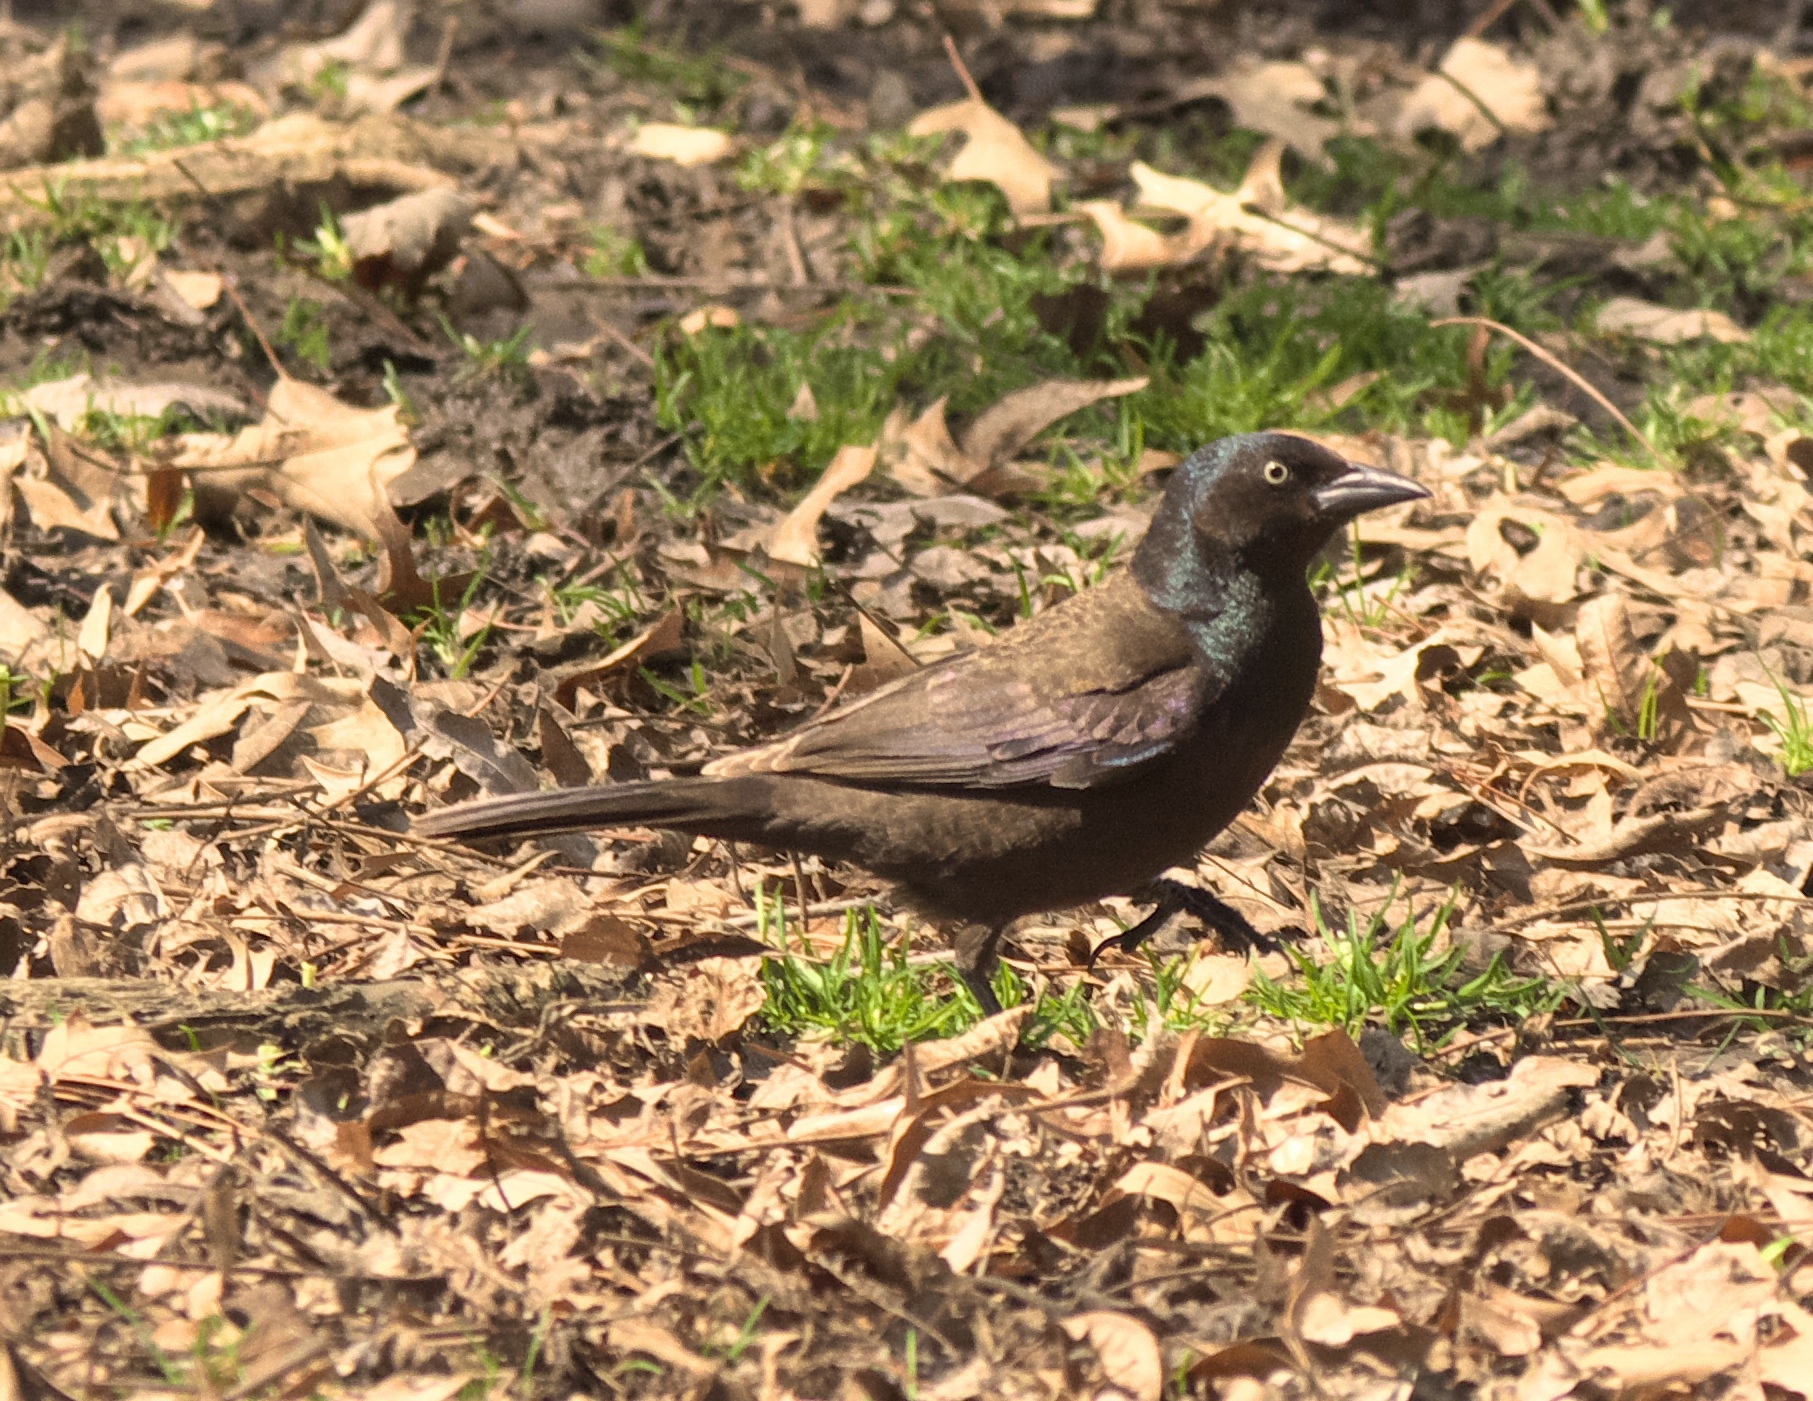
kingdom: Animalia
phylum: Chordata
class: Aves
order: Passeriformes
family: Icteridae
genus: Quiscalus
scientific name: Quiscalus quiscula
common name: Common grackle
